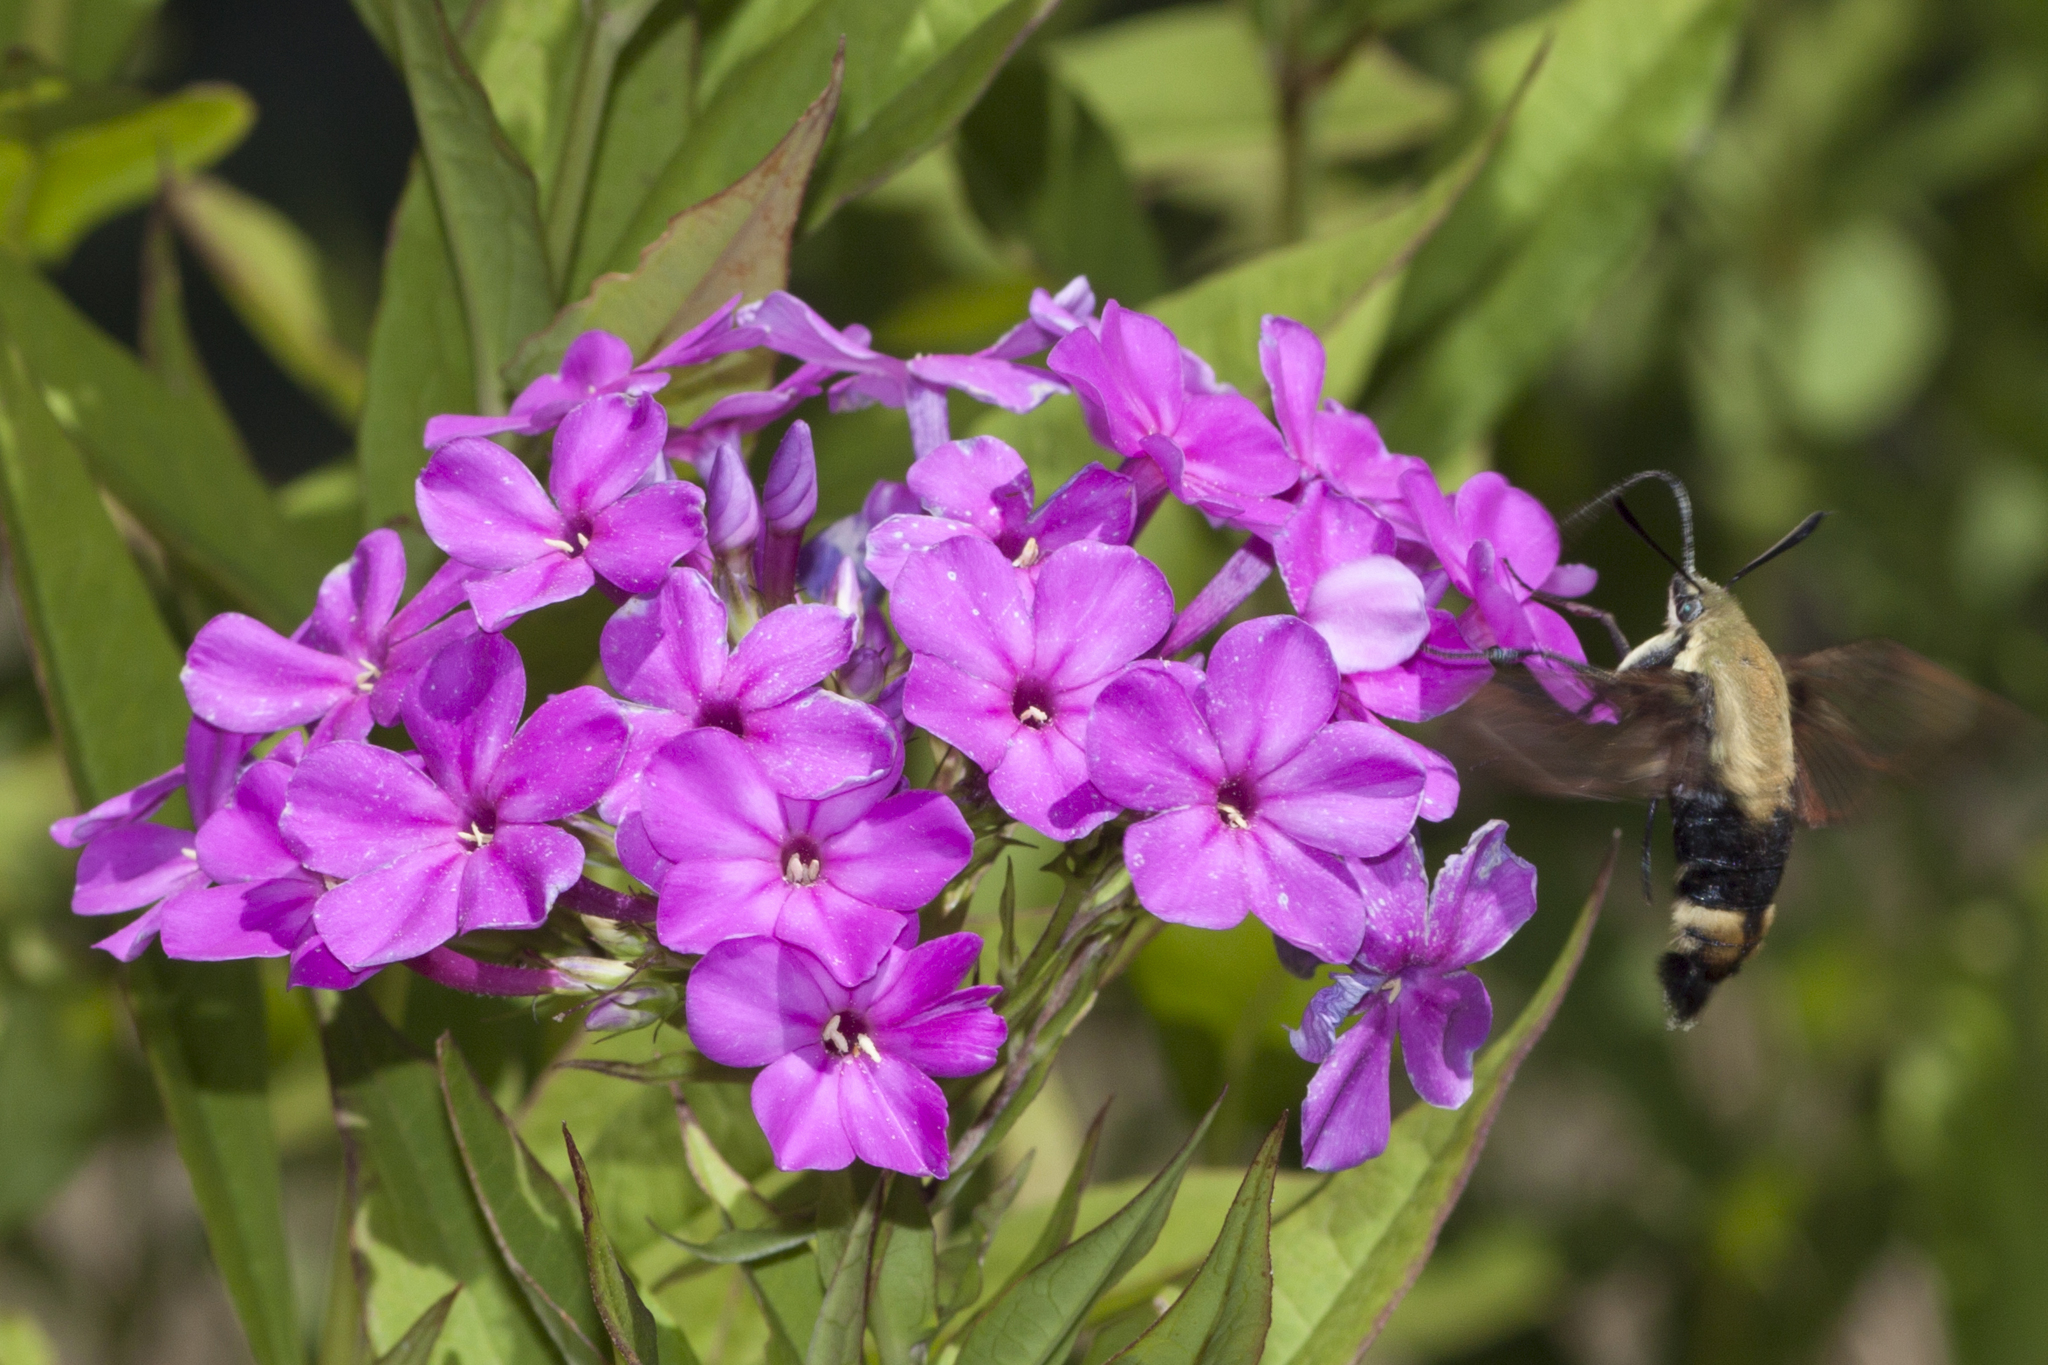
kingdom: Animalia
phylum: Arthropoda
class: Insecta
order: Lepidoptera
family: Sphingidae
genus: Hemaris
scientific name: Hemaris diffinis
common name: Bumblebee moth
